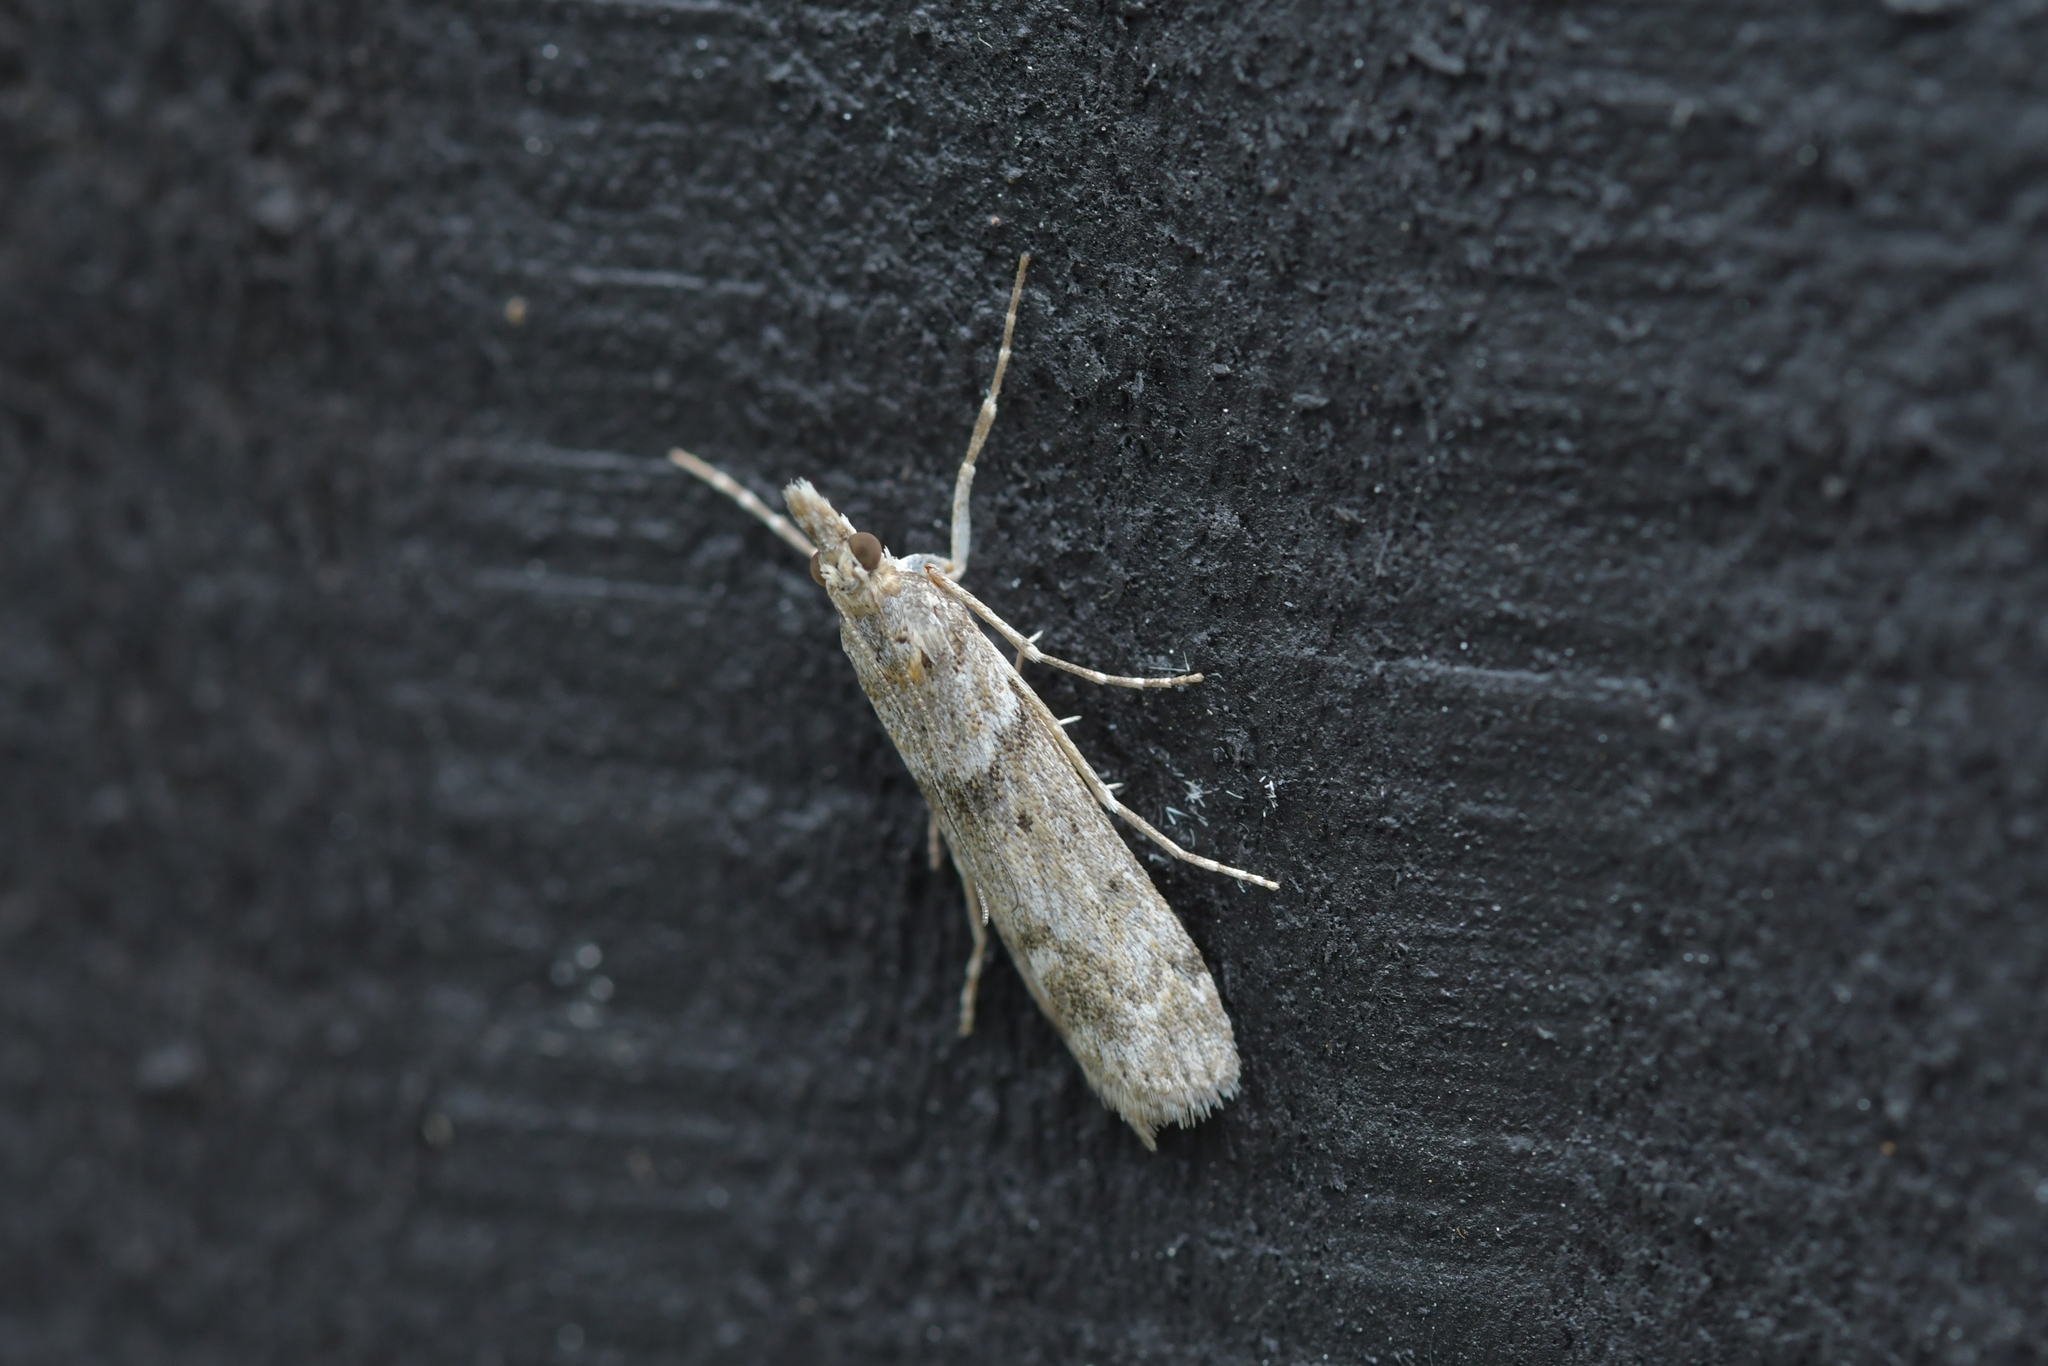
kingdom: Animalia
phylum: Arthropoda
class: Insecta
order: Lepidoptera
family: Crambidae
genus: Eudonia
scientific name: Eudonia leptalea
